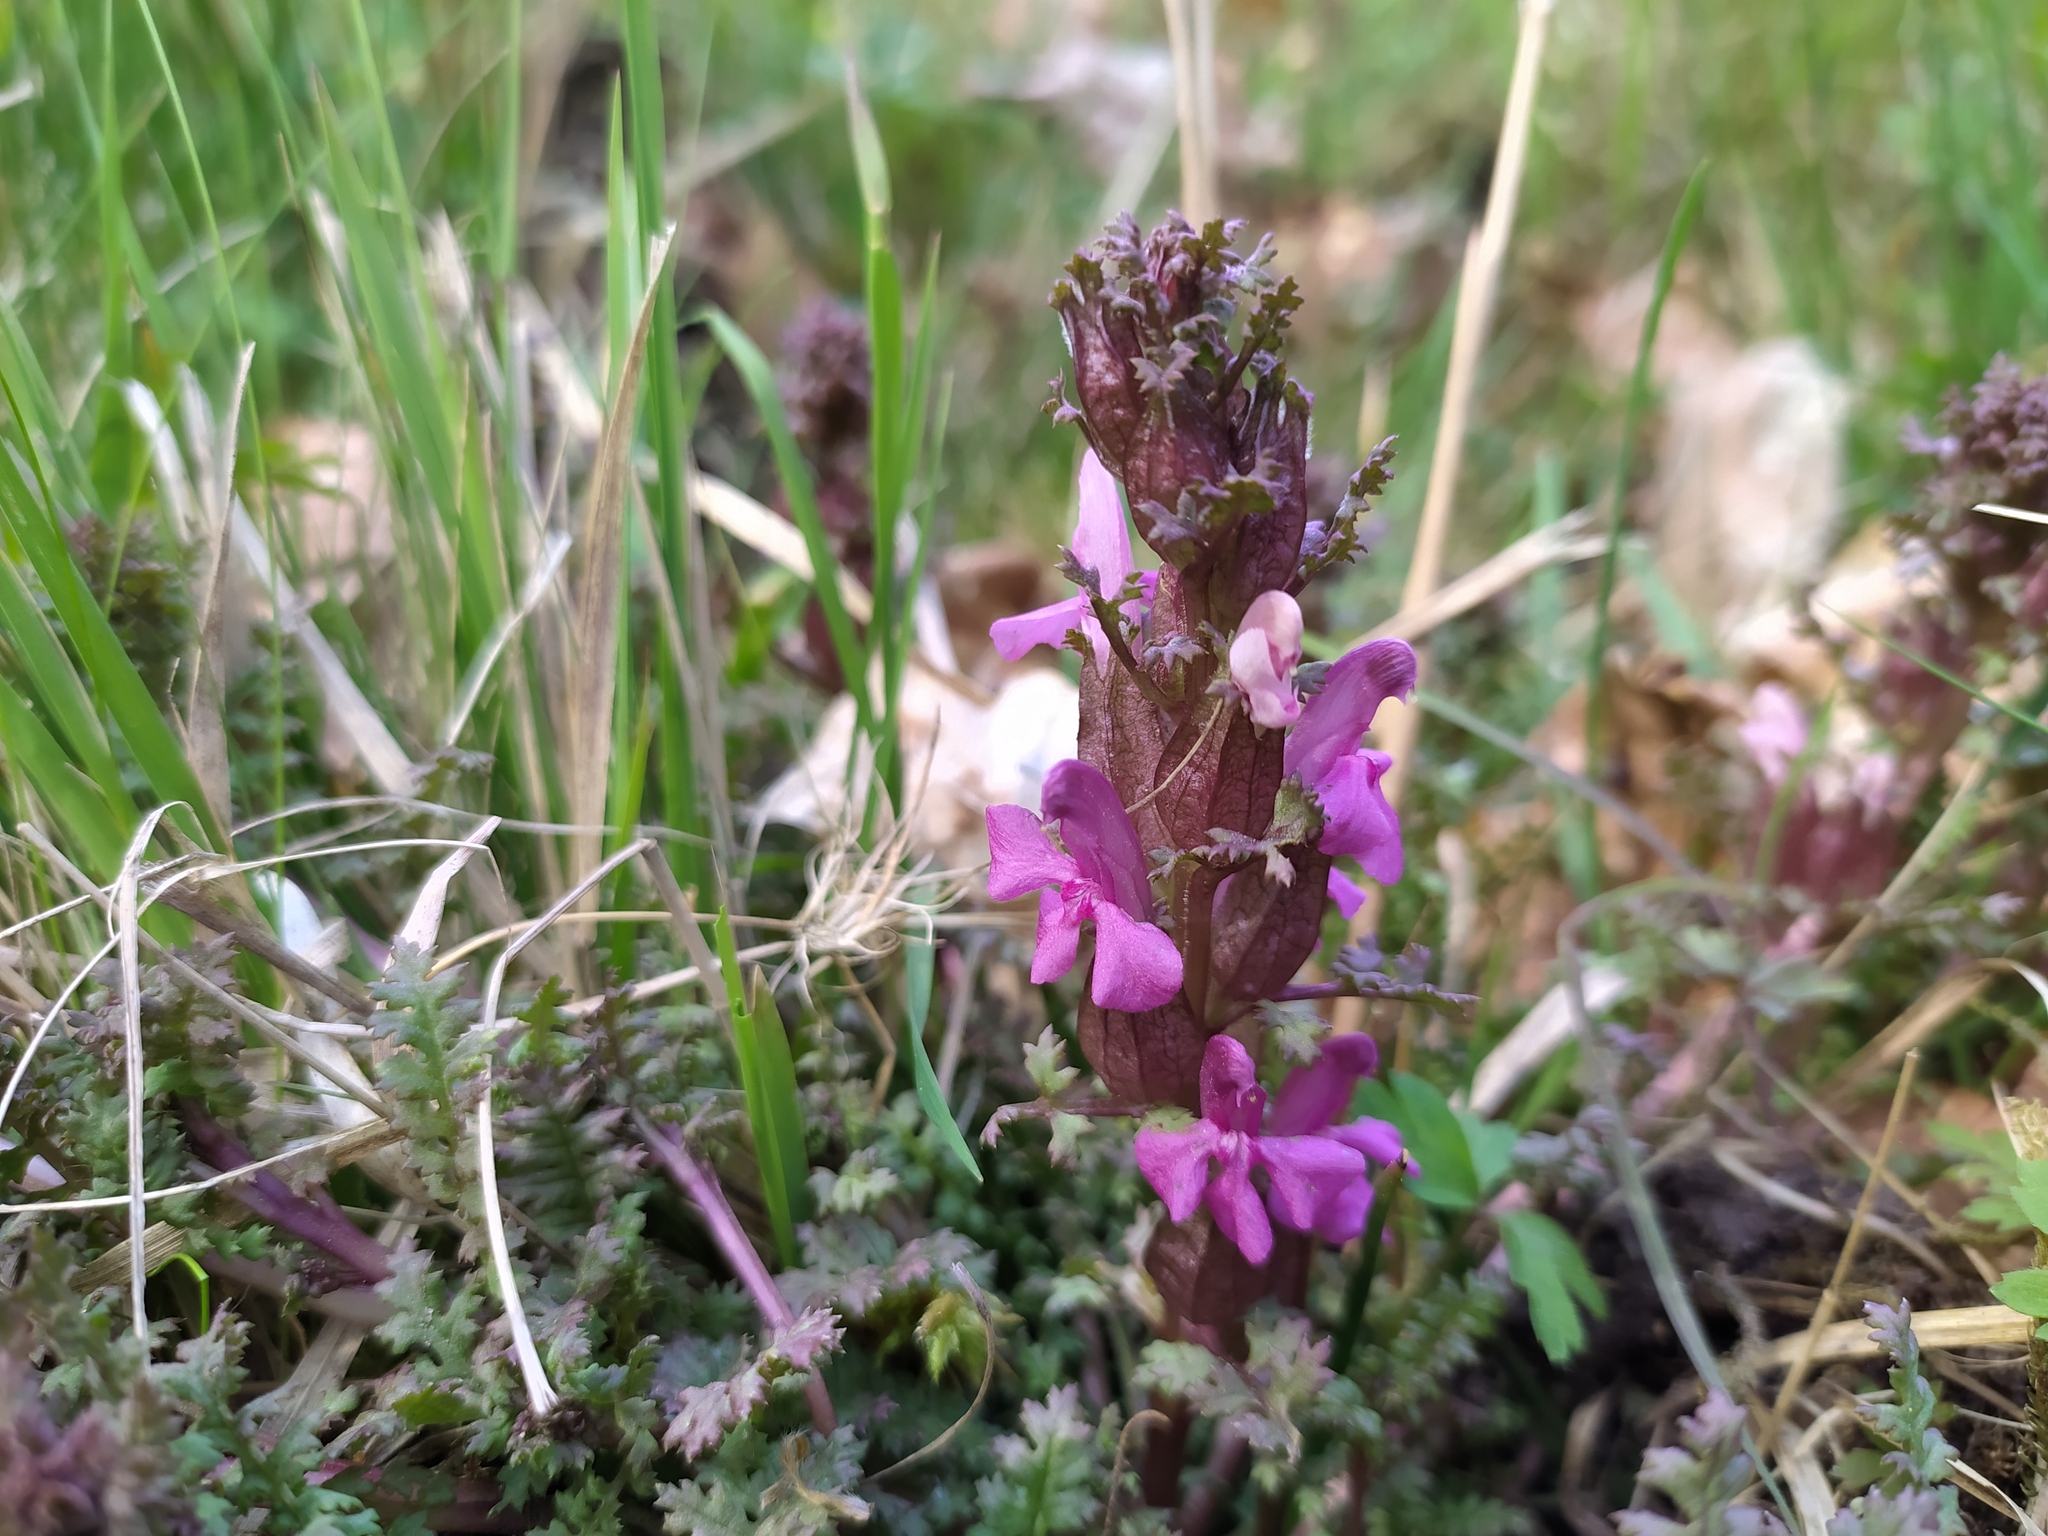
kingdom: Plantae
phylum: Tracheophyta
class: Magnoliopsida
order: Lamiales
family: Orobanchaceae
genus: Pedicularis
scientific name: Pedicularis sylvatica
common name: Lousewort
